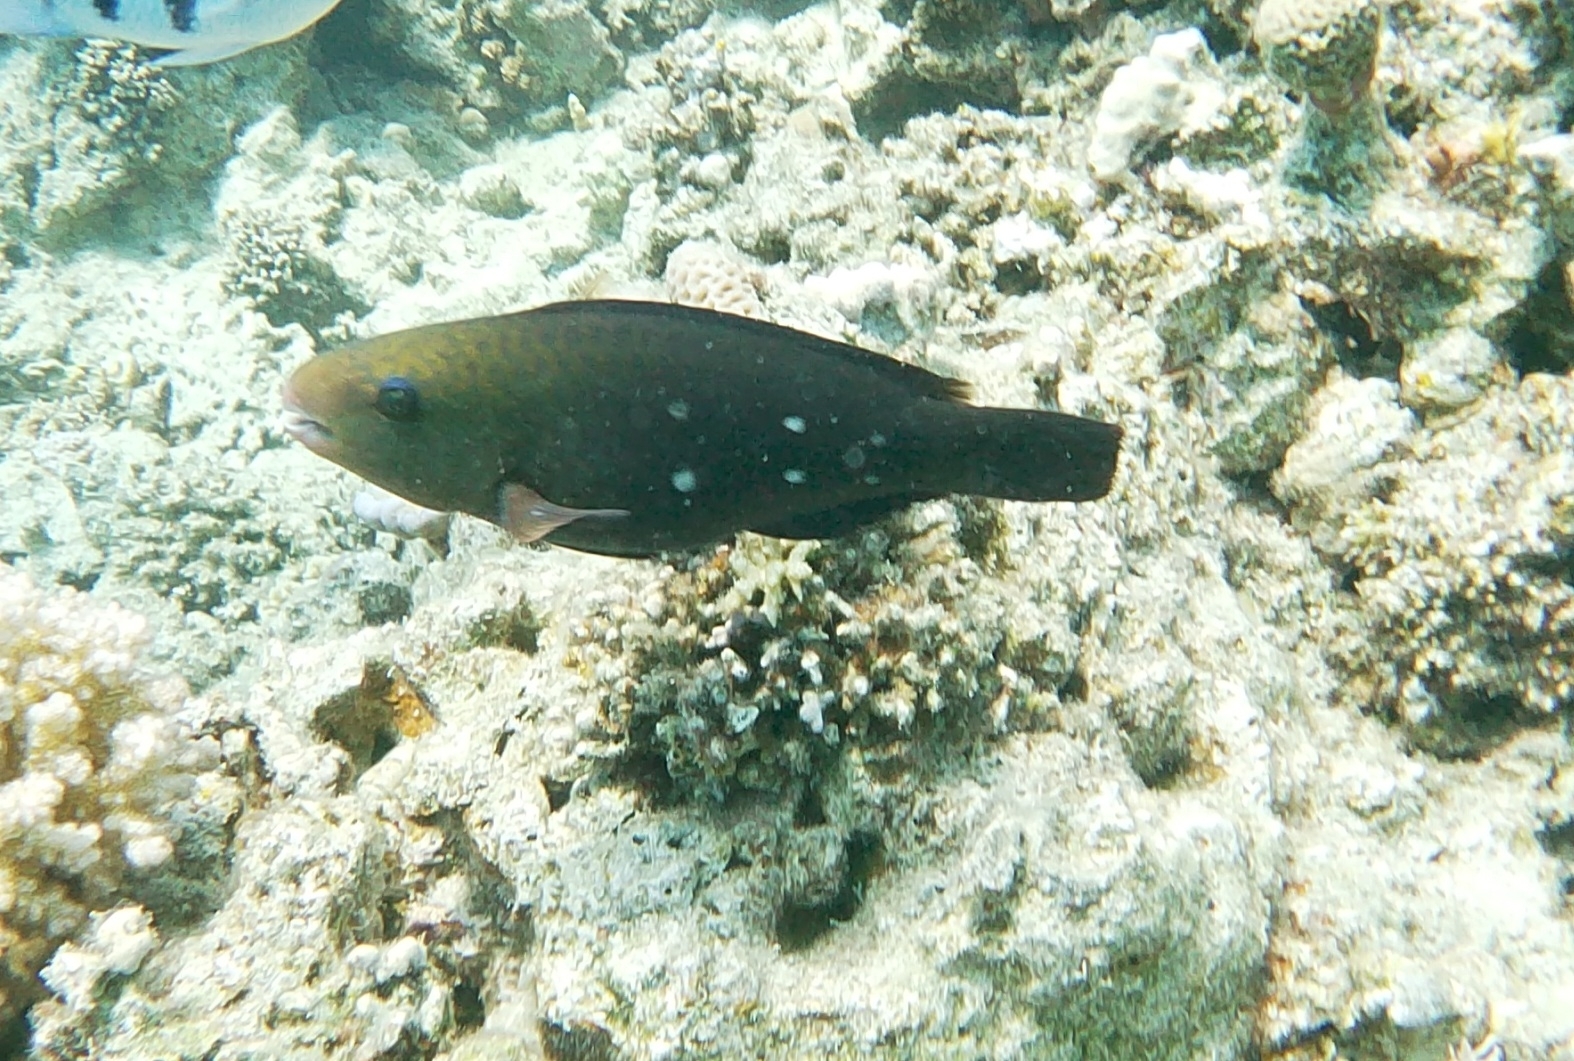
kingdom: Animalia
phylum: Chordata
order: Perciformes
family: Scaridae
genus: Chlorurus
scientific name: Chlorurus sordidus
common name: Bullethead parrotfish
